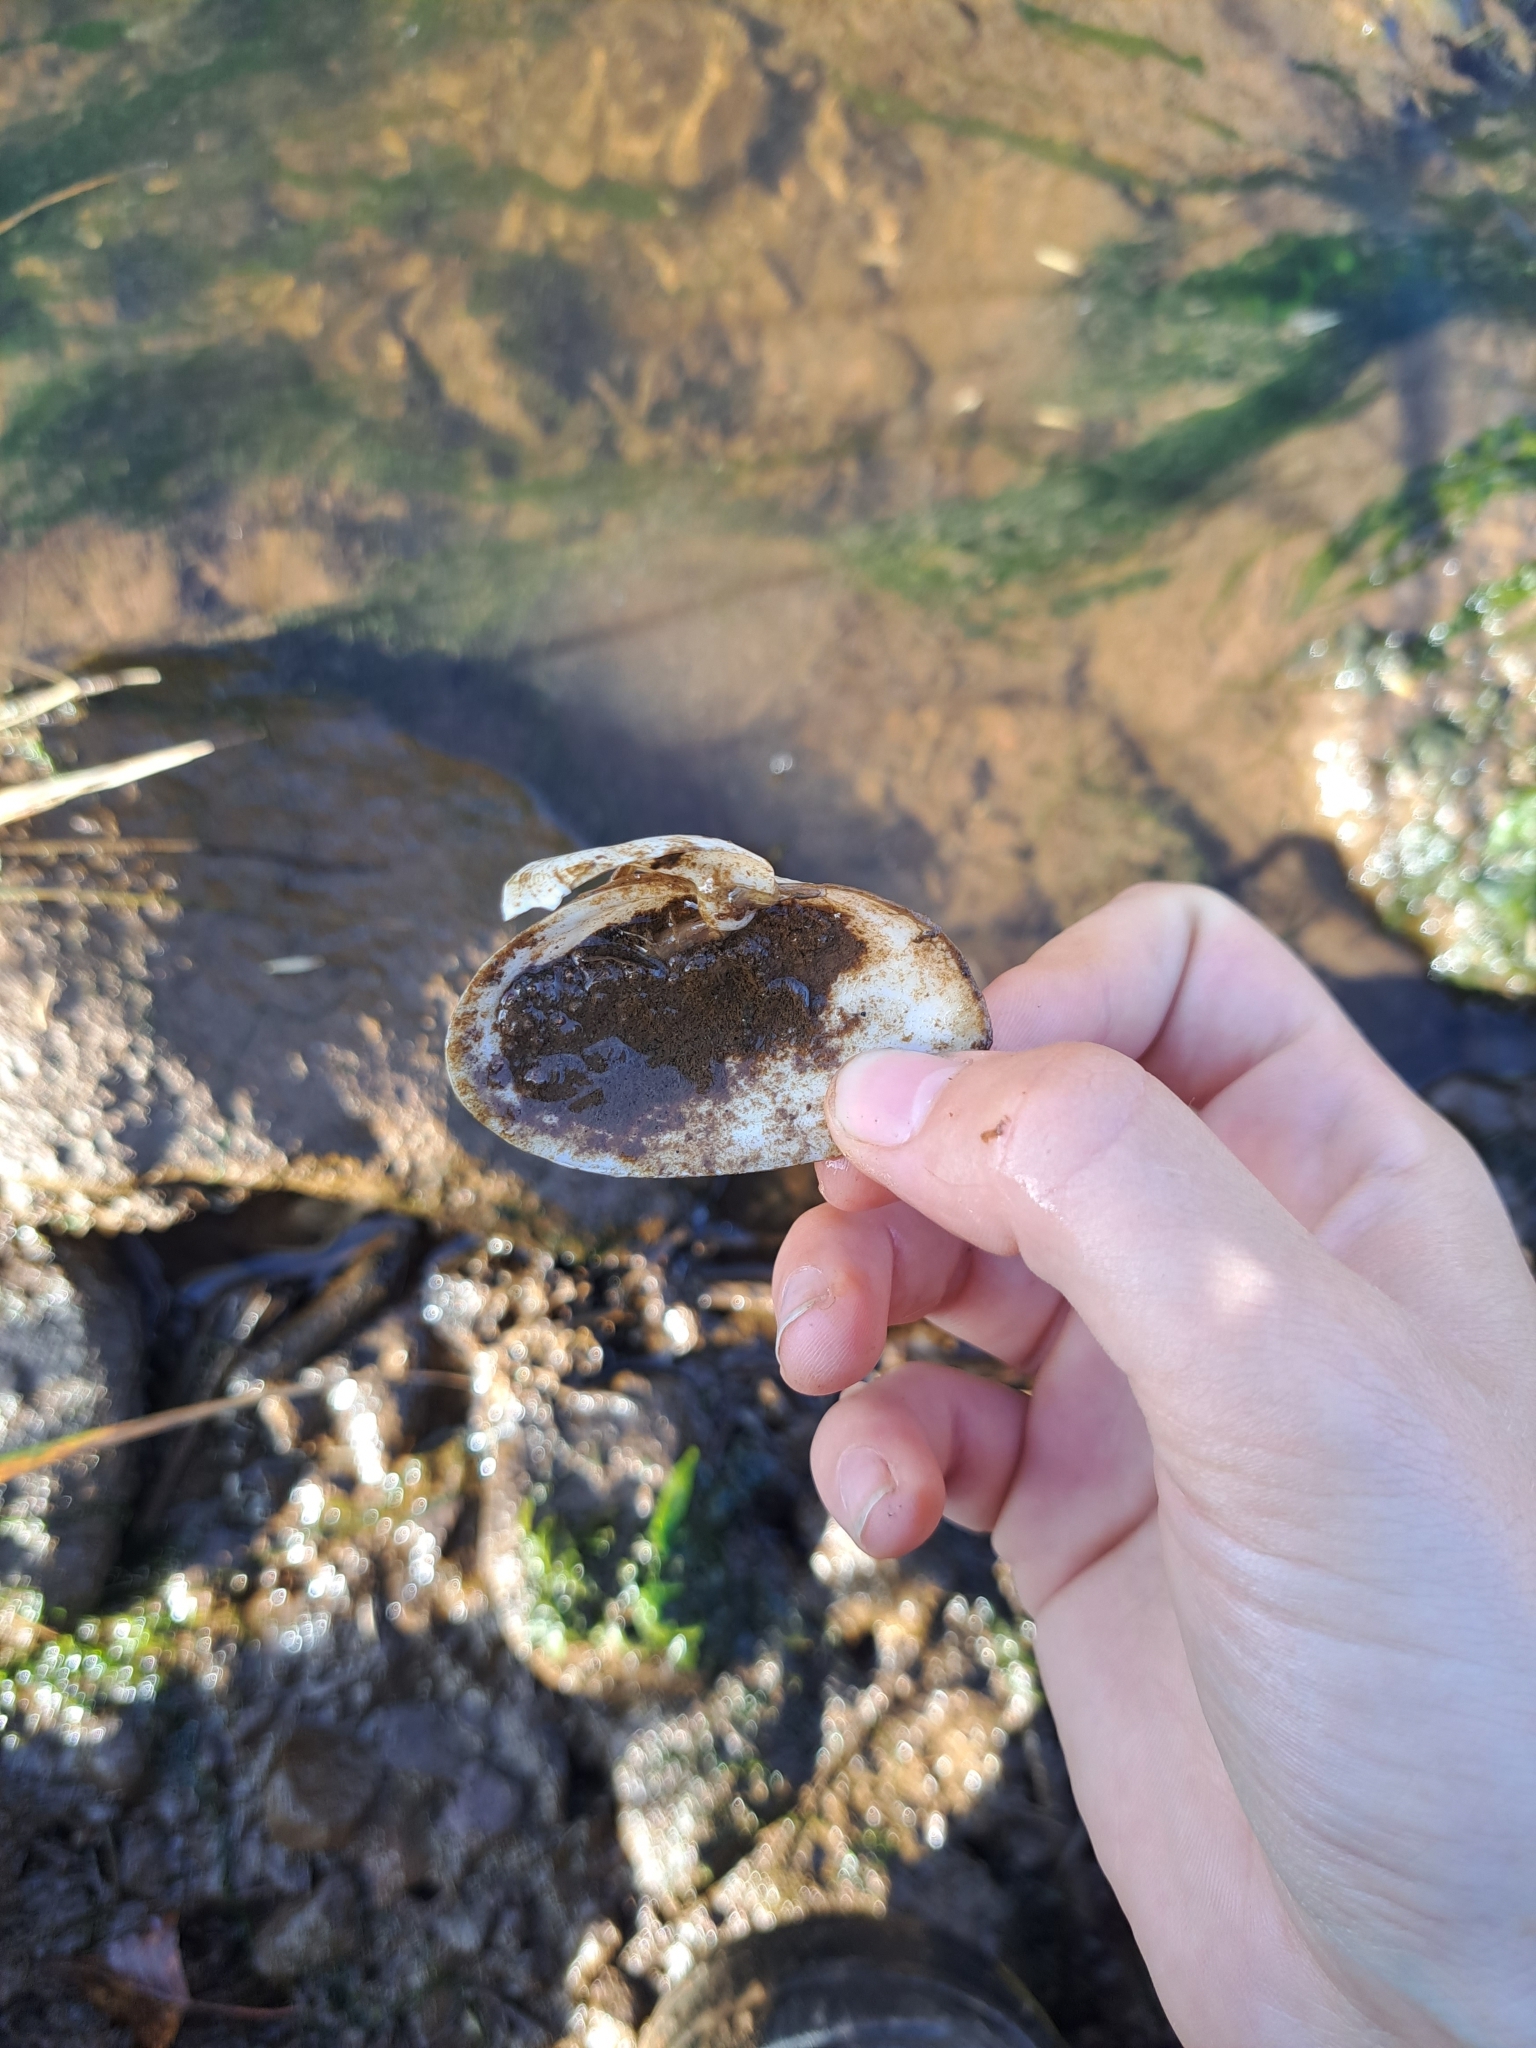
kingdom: Animalia
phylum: Mollusca
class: Bivalvia
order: Myida
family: Myidae
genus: Mya
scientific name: Mya arenaria
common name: Soft-shelled clam
